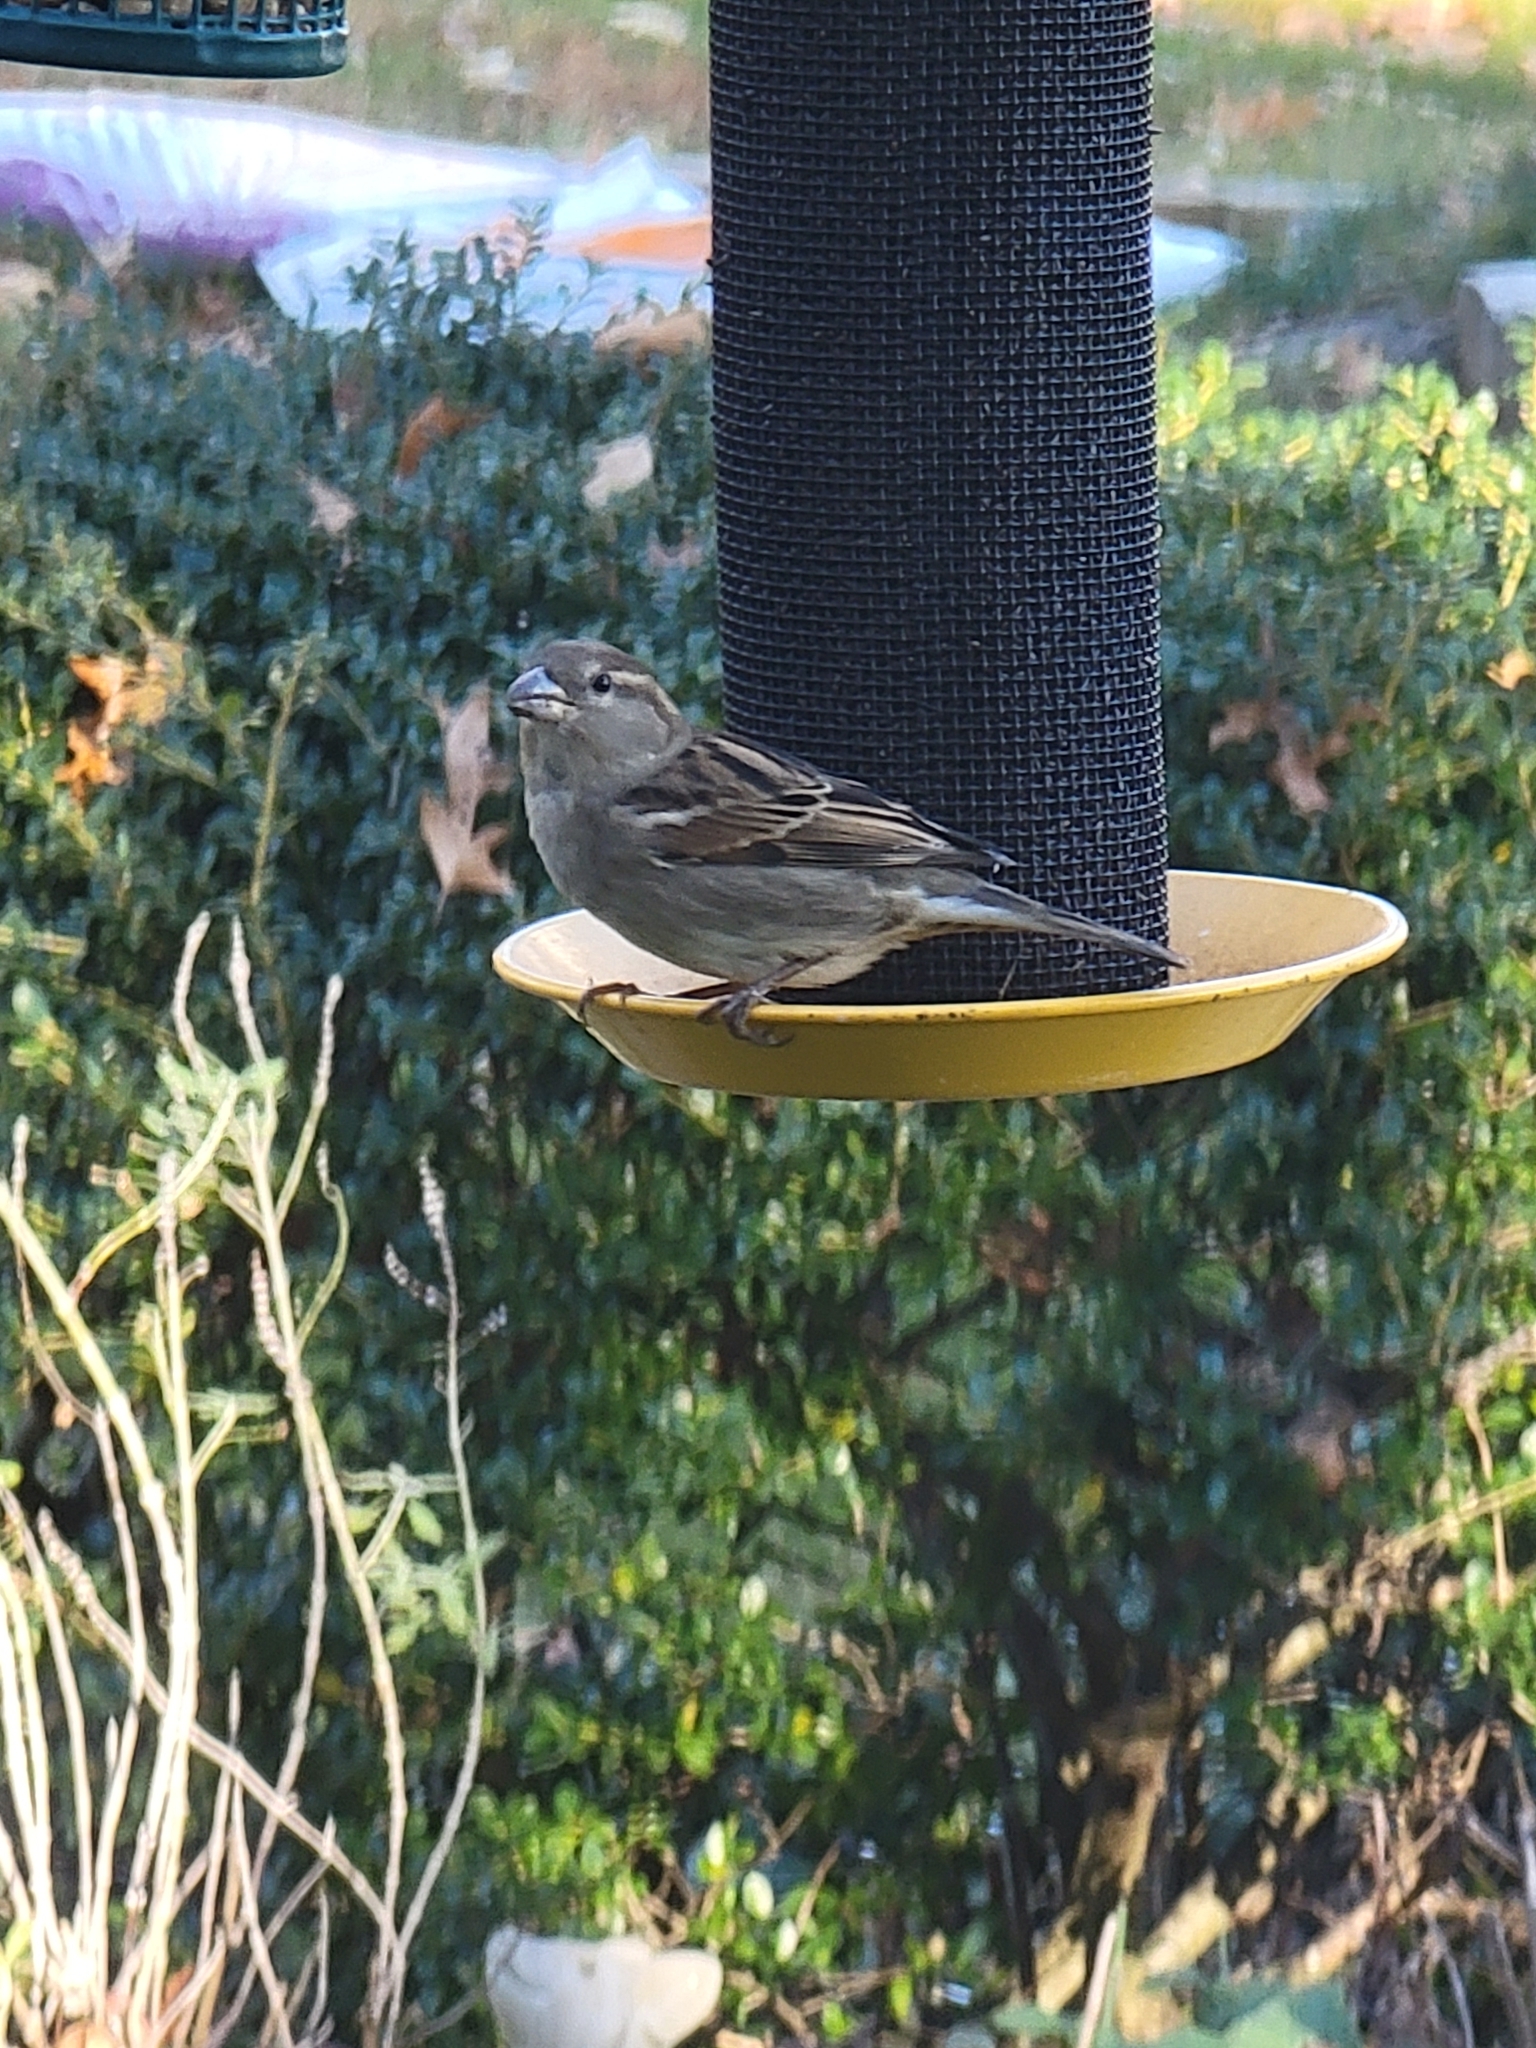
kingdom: Animalia
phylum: Chordata
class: Aves
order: Passeriformes
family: Passeridae
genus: Passer
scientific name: Passer domesticus
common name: House sparrow
